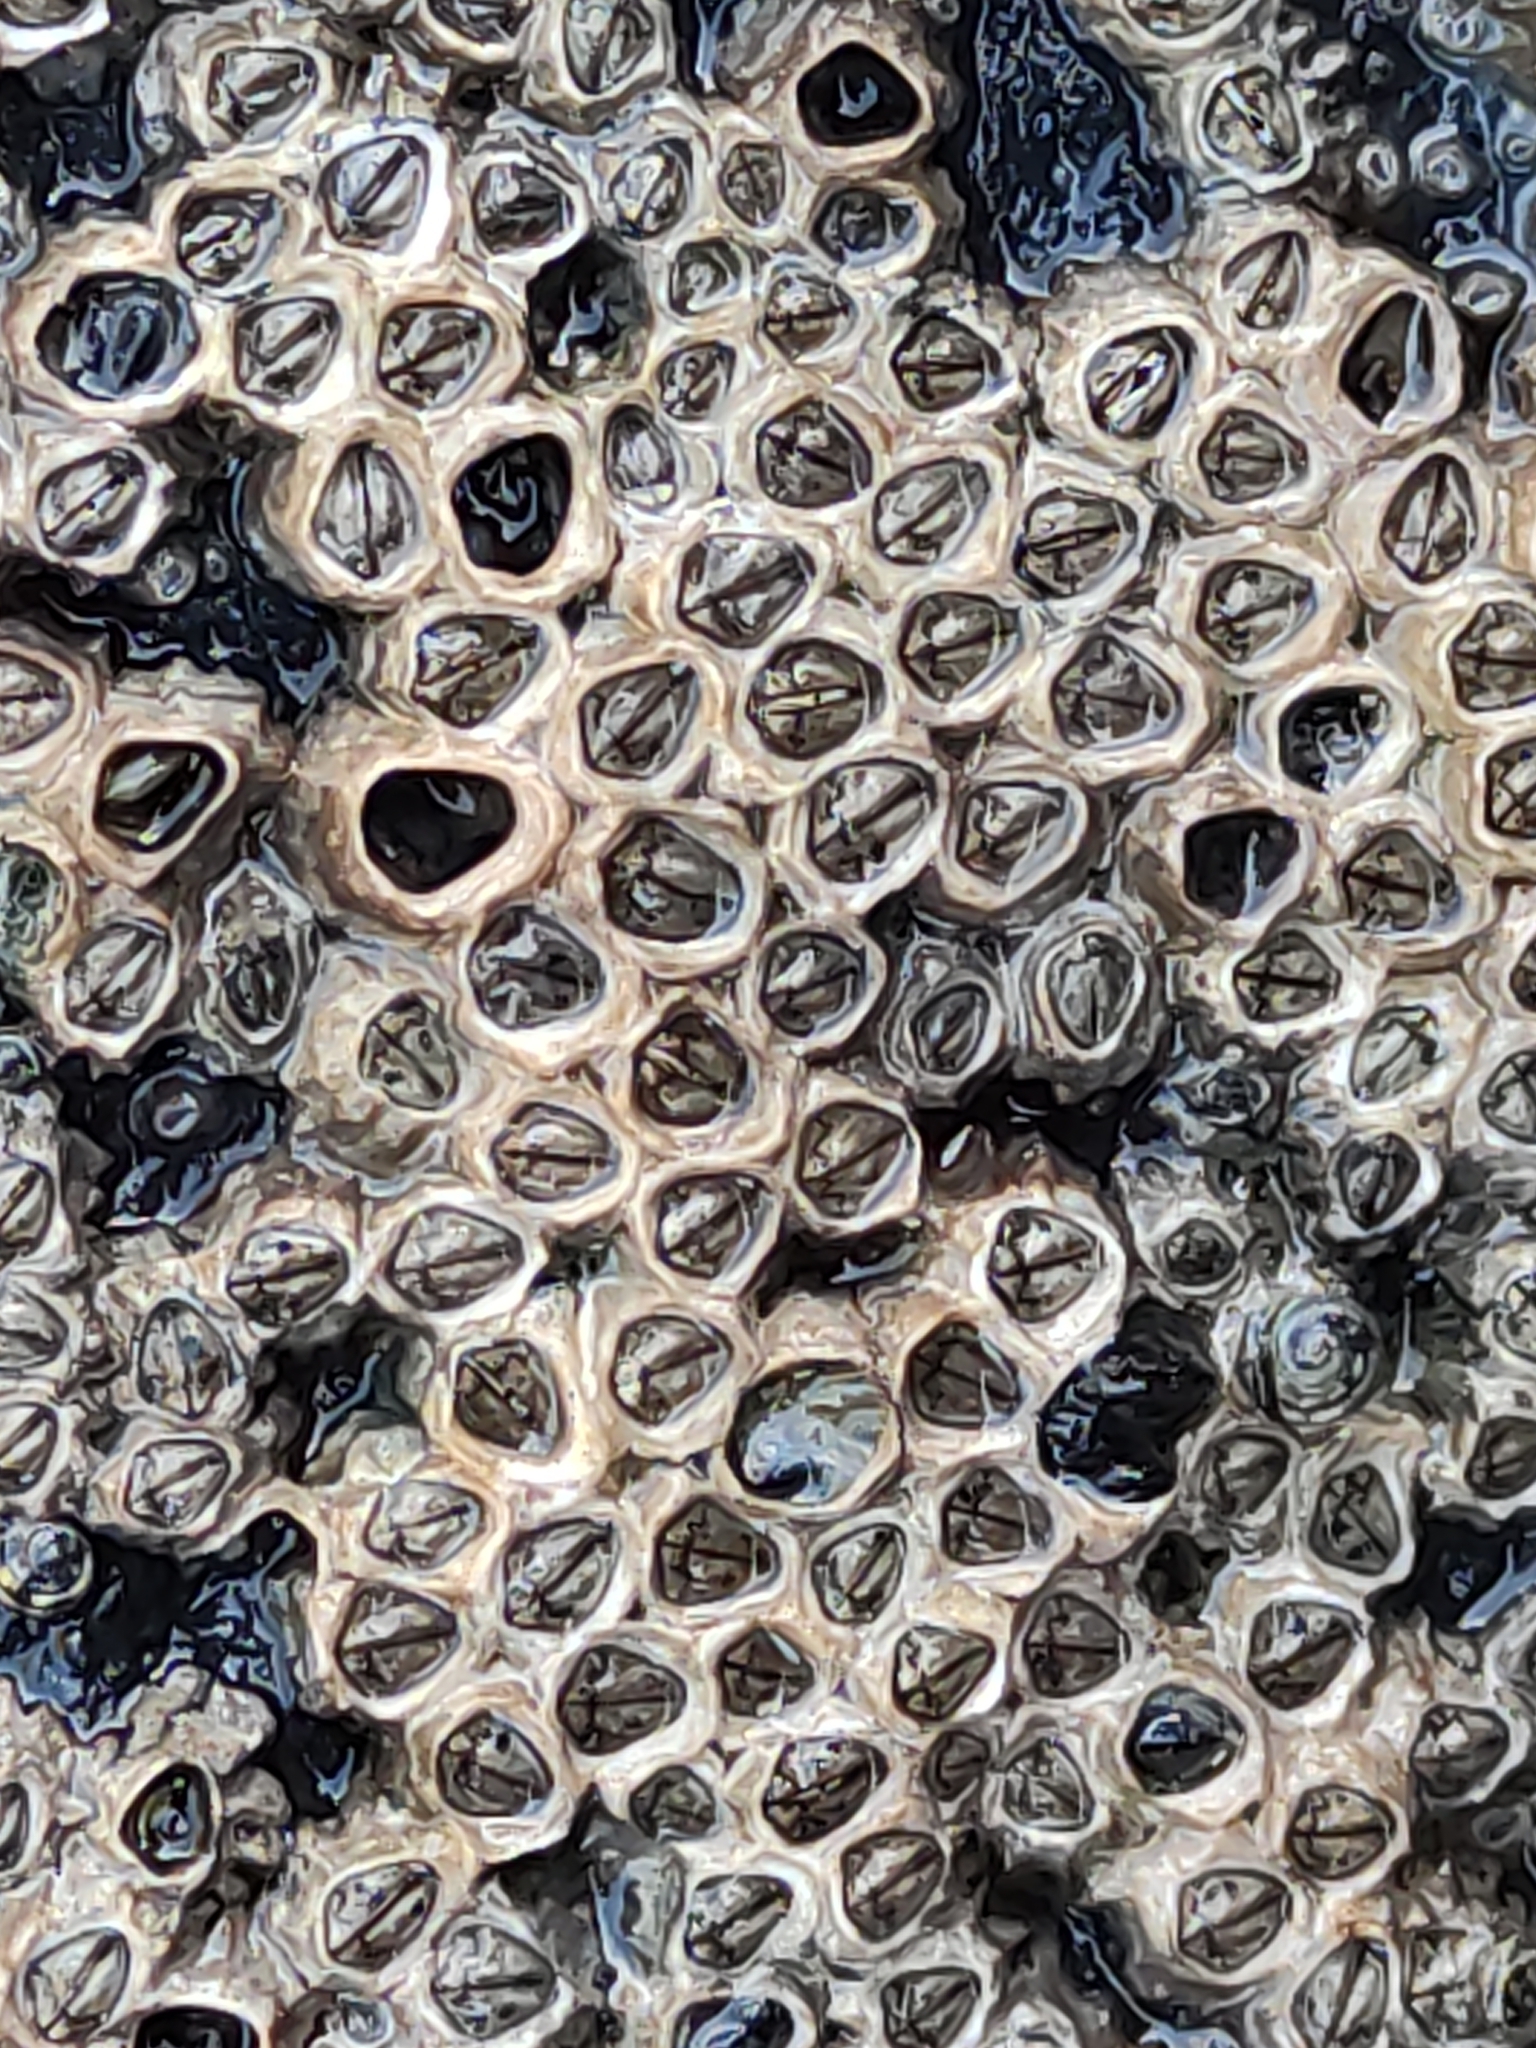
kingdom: Animalia
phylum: Arthropoda
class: Maxillopoda
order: Sessilia
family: Chthamalidae
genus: Chamaesipho
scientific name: Chamaesipho columna
